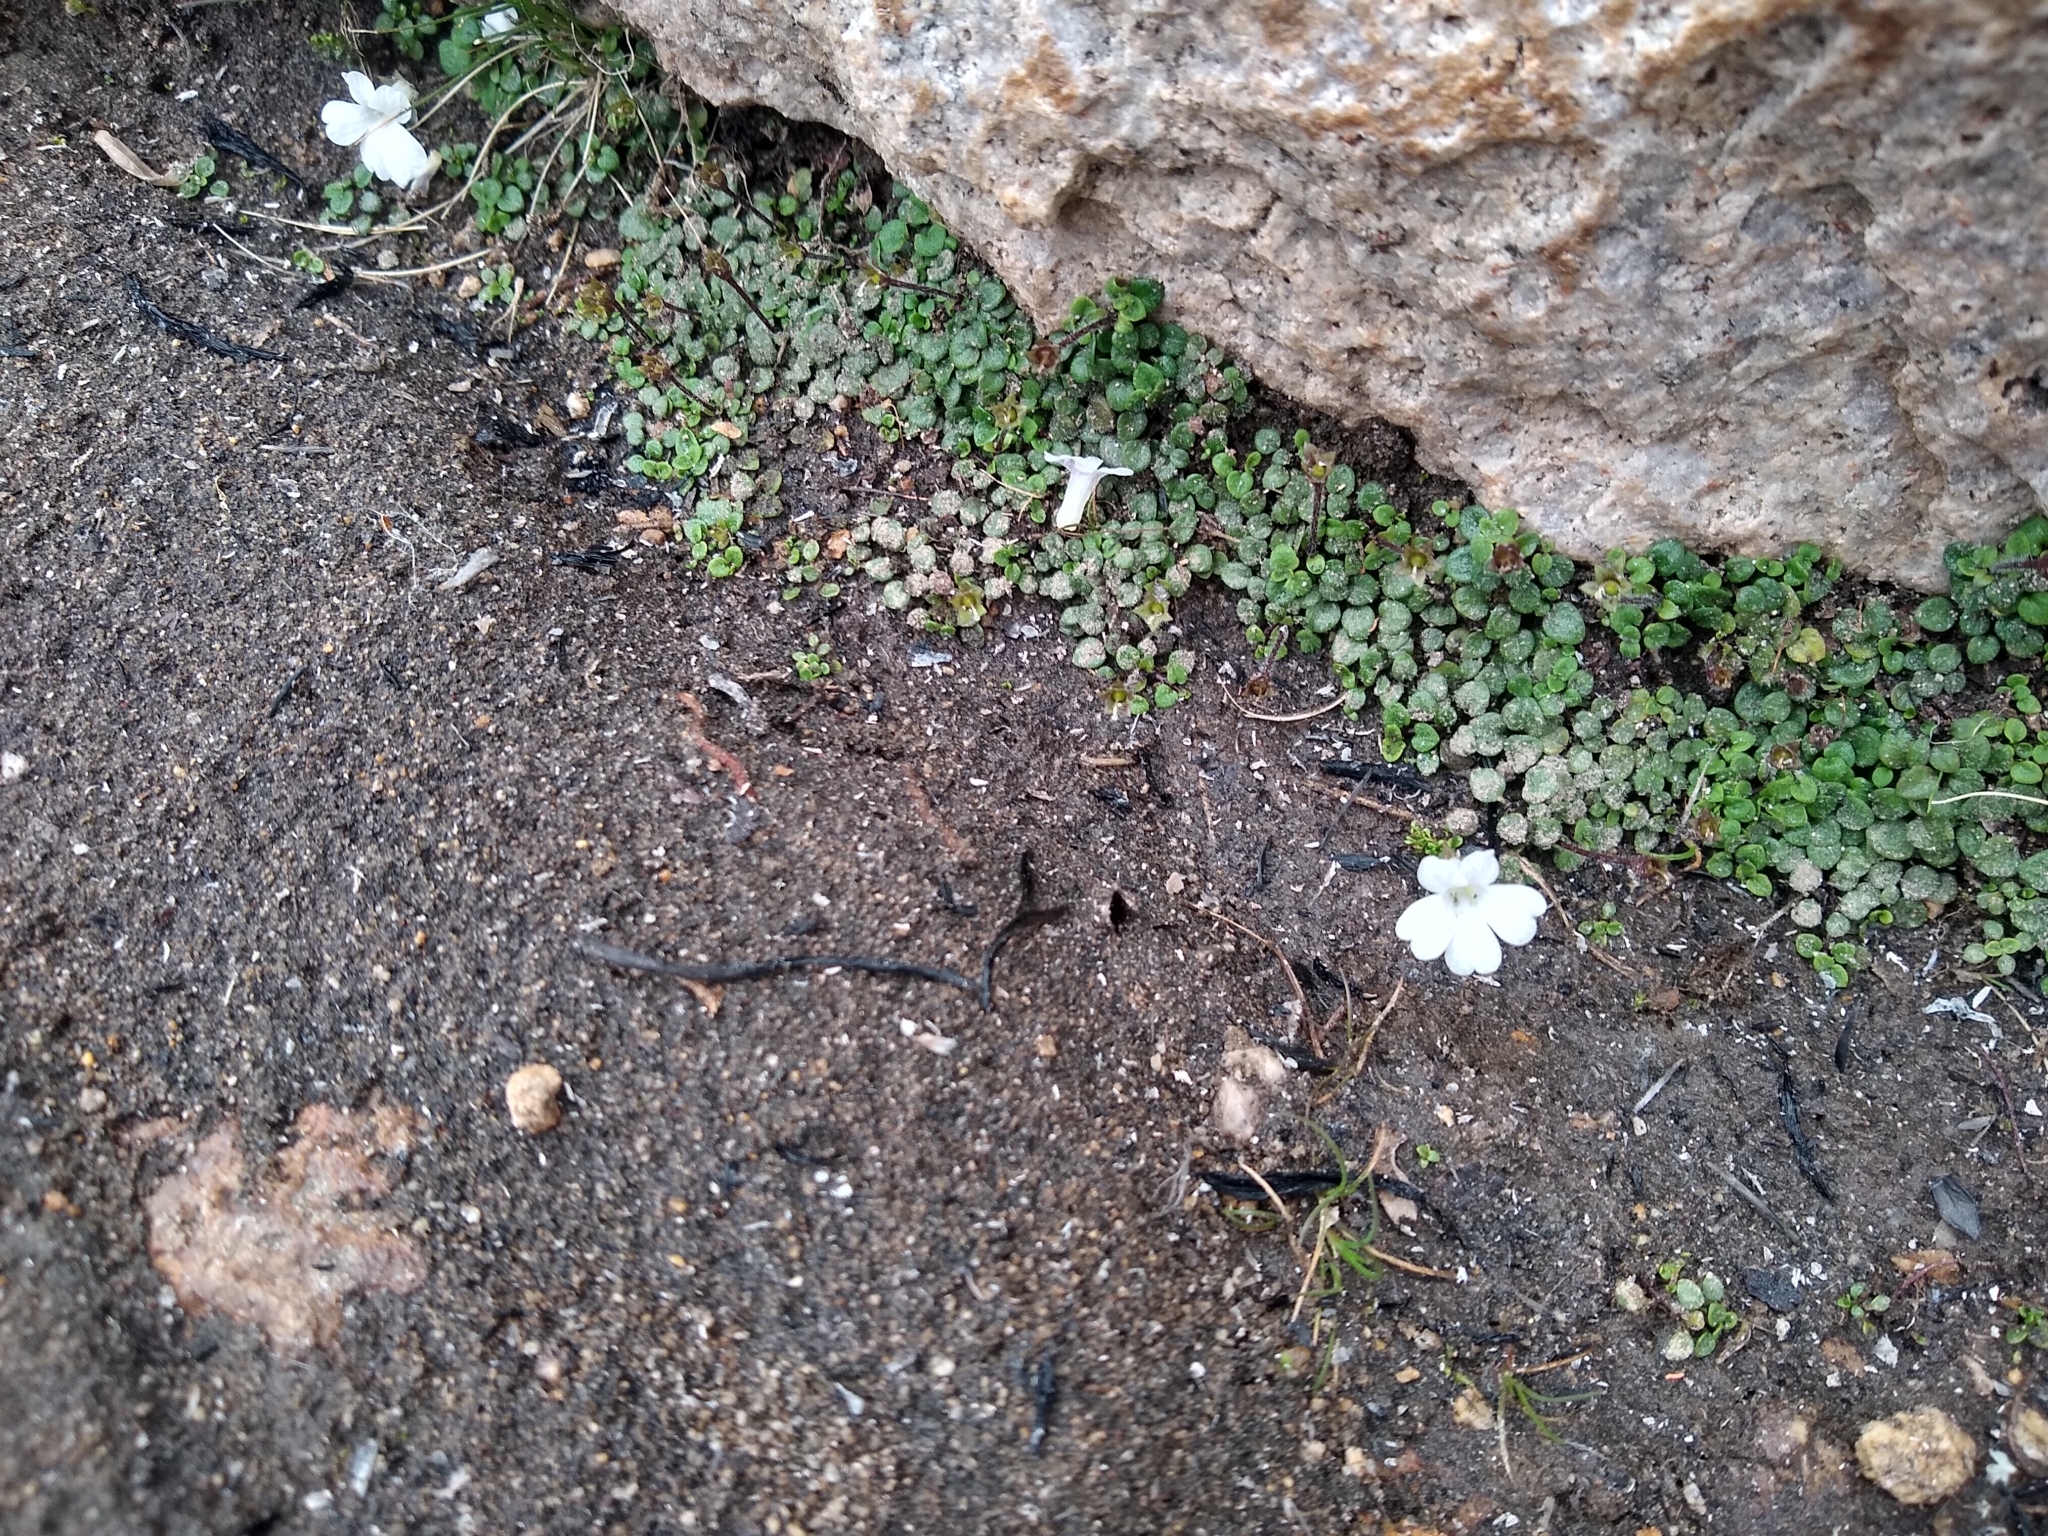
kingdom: Plantae
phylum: Tracheophyta
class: Magnoliopsida
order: Lamiales
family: Plantaginaceae
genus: Ourisia
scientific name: Ourisia pygmaea
